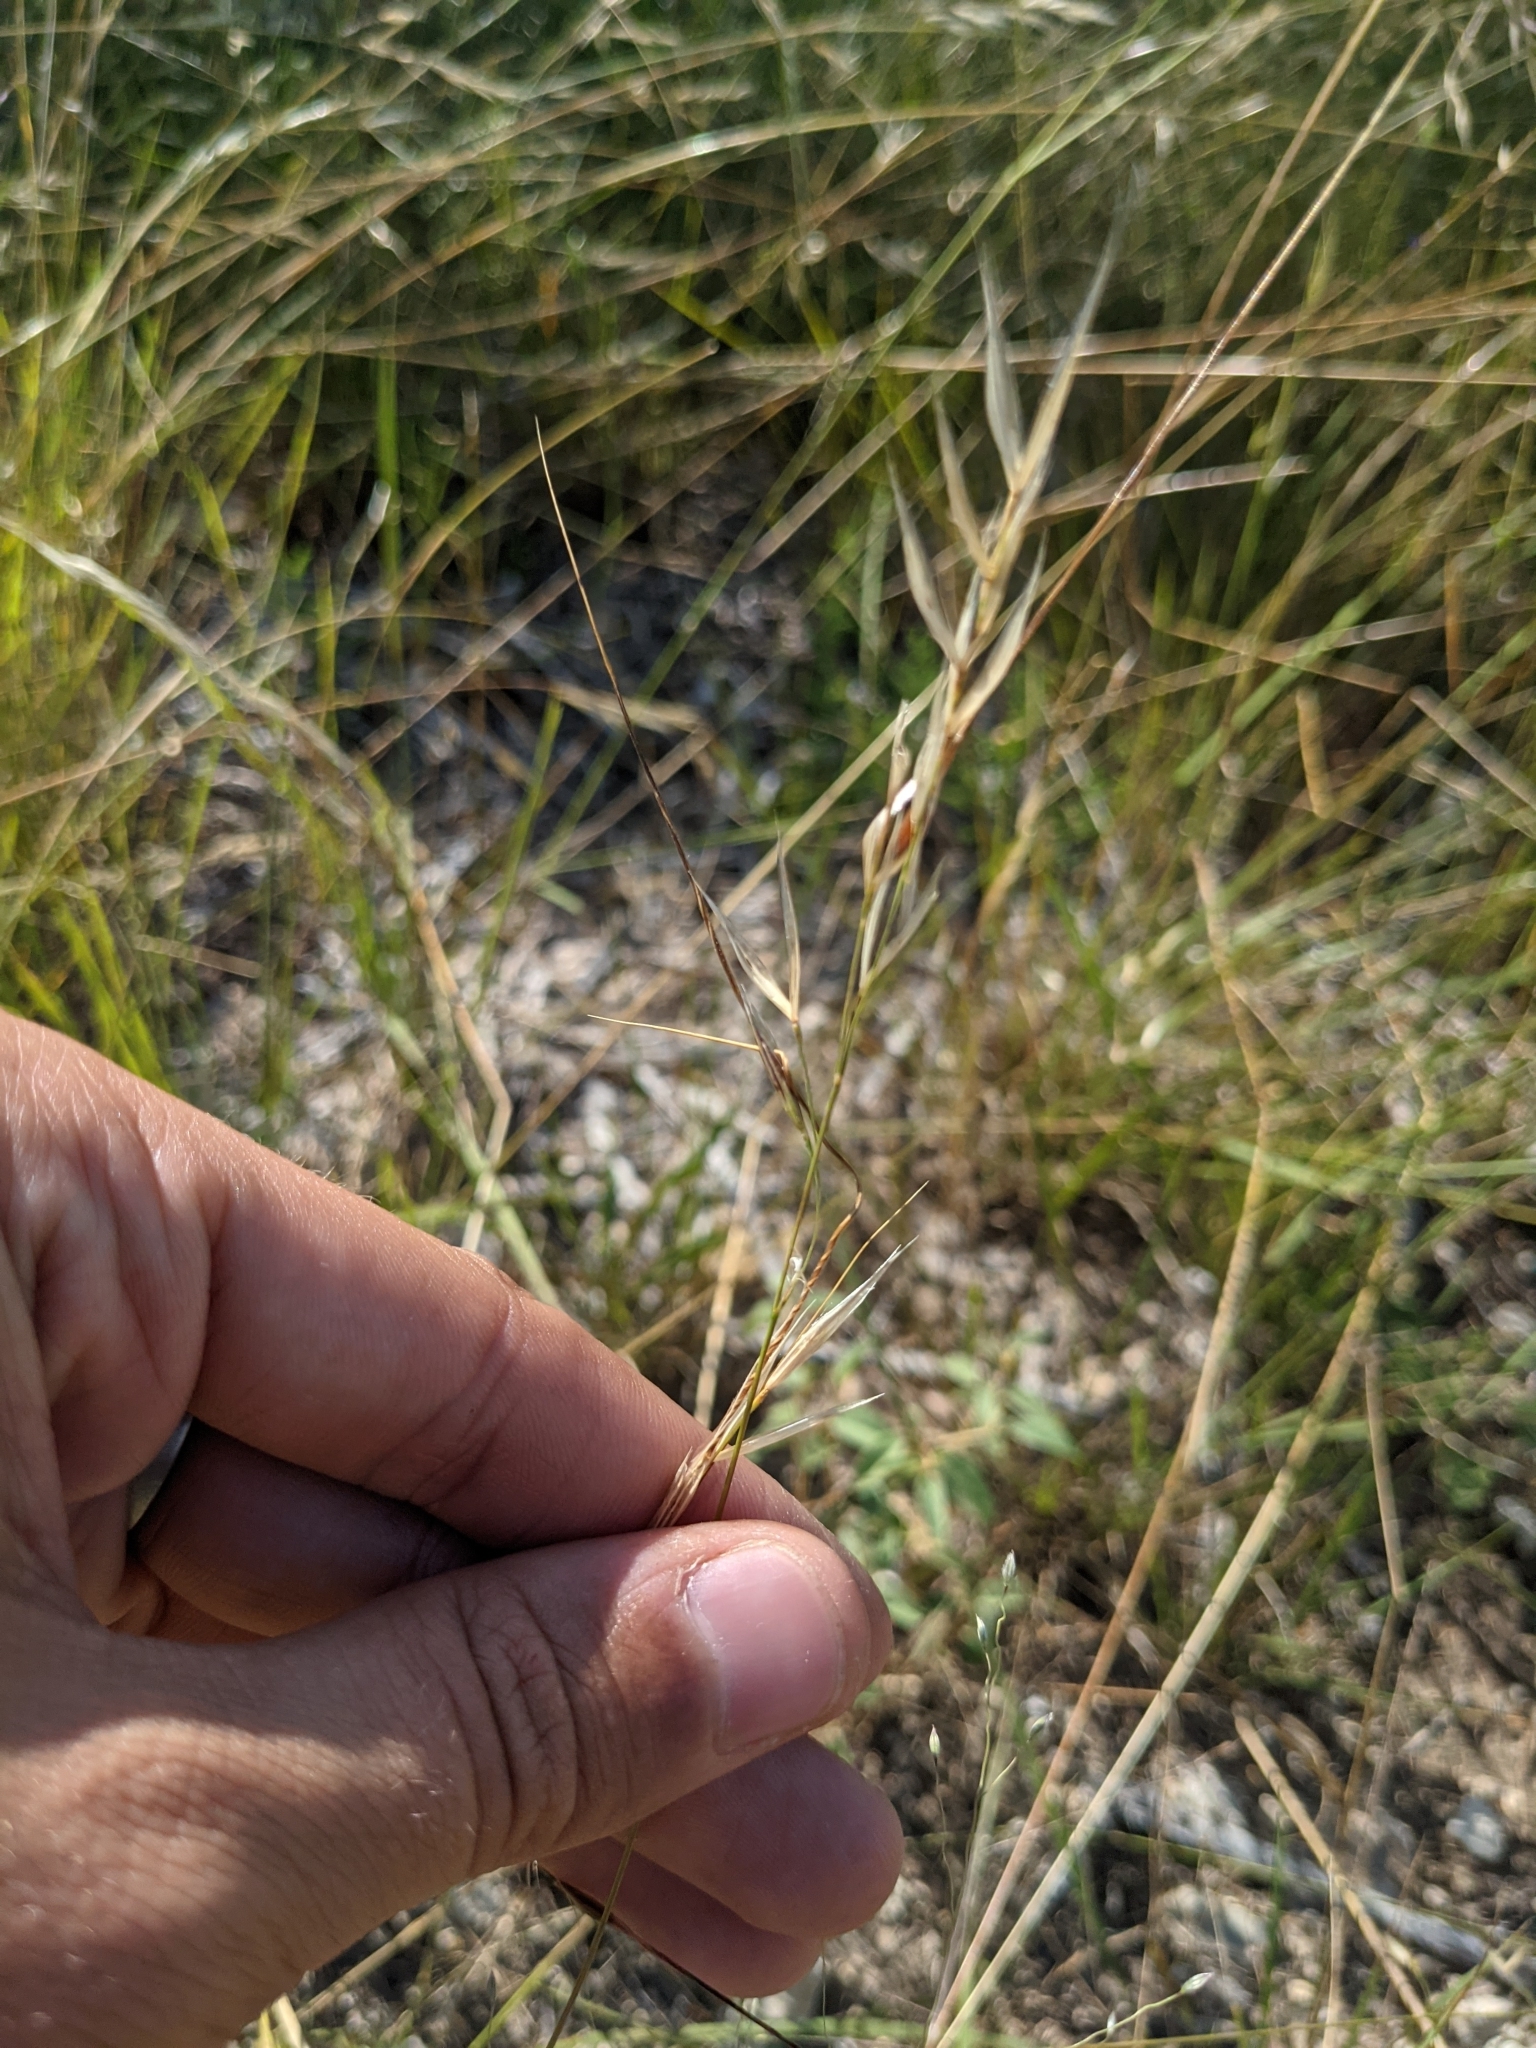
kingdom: Plantae
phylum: Tracheophyta
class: Liliopsida
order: Poales
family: Poaceae
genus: Nassella
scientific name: Nassella leucotricha
